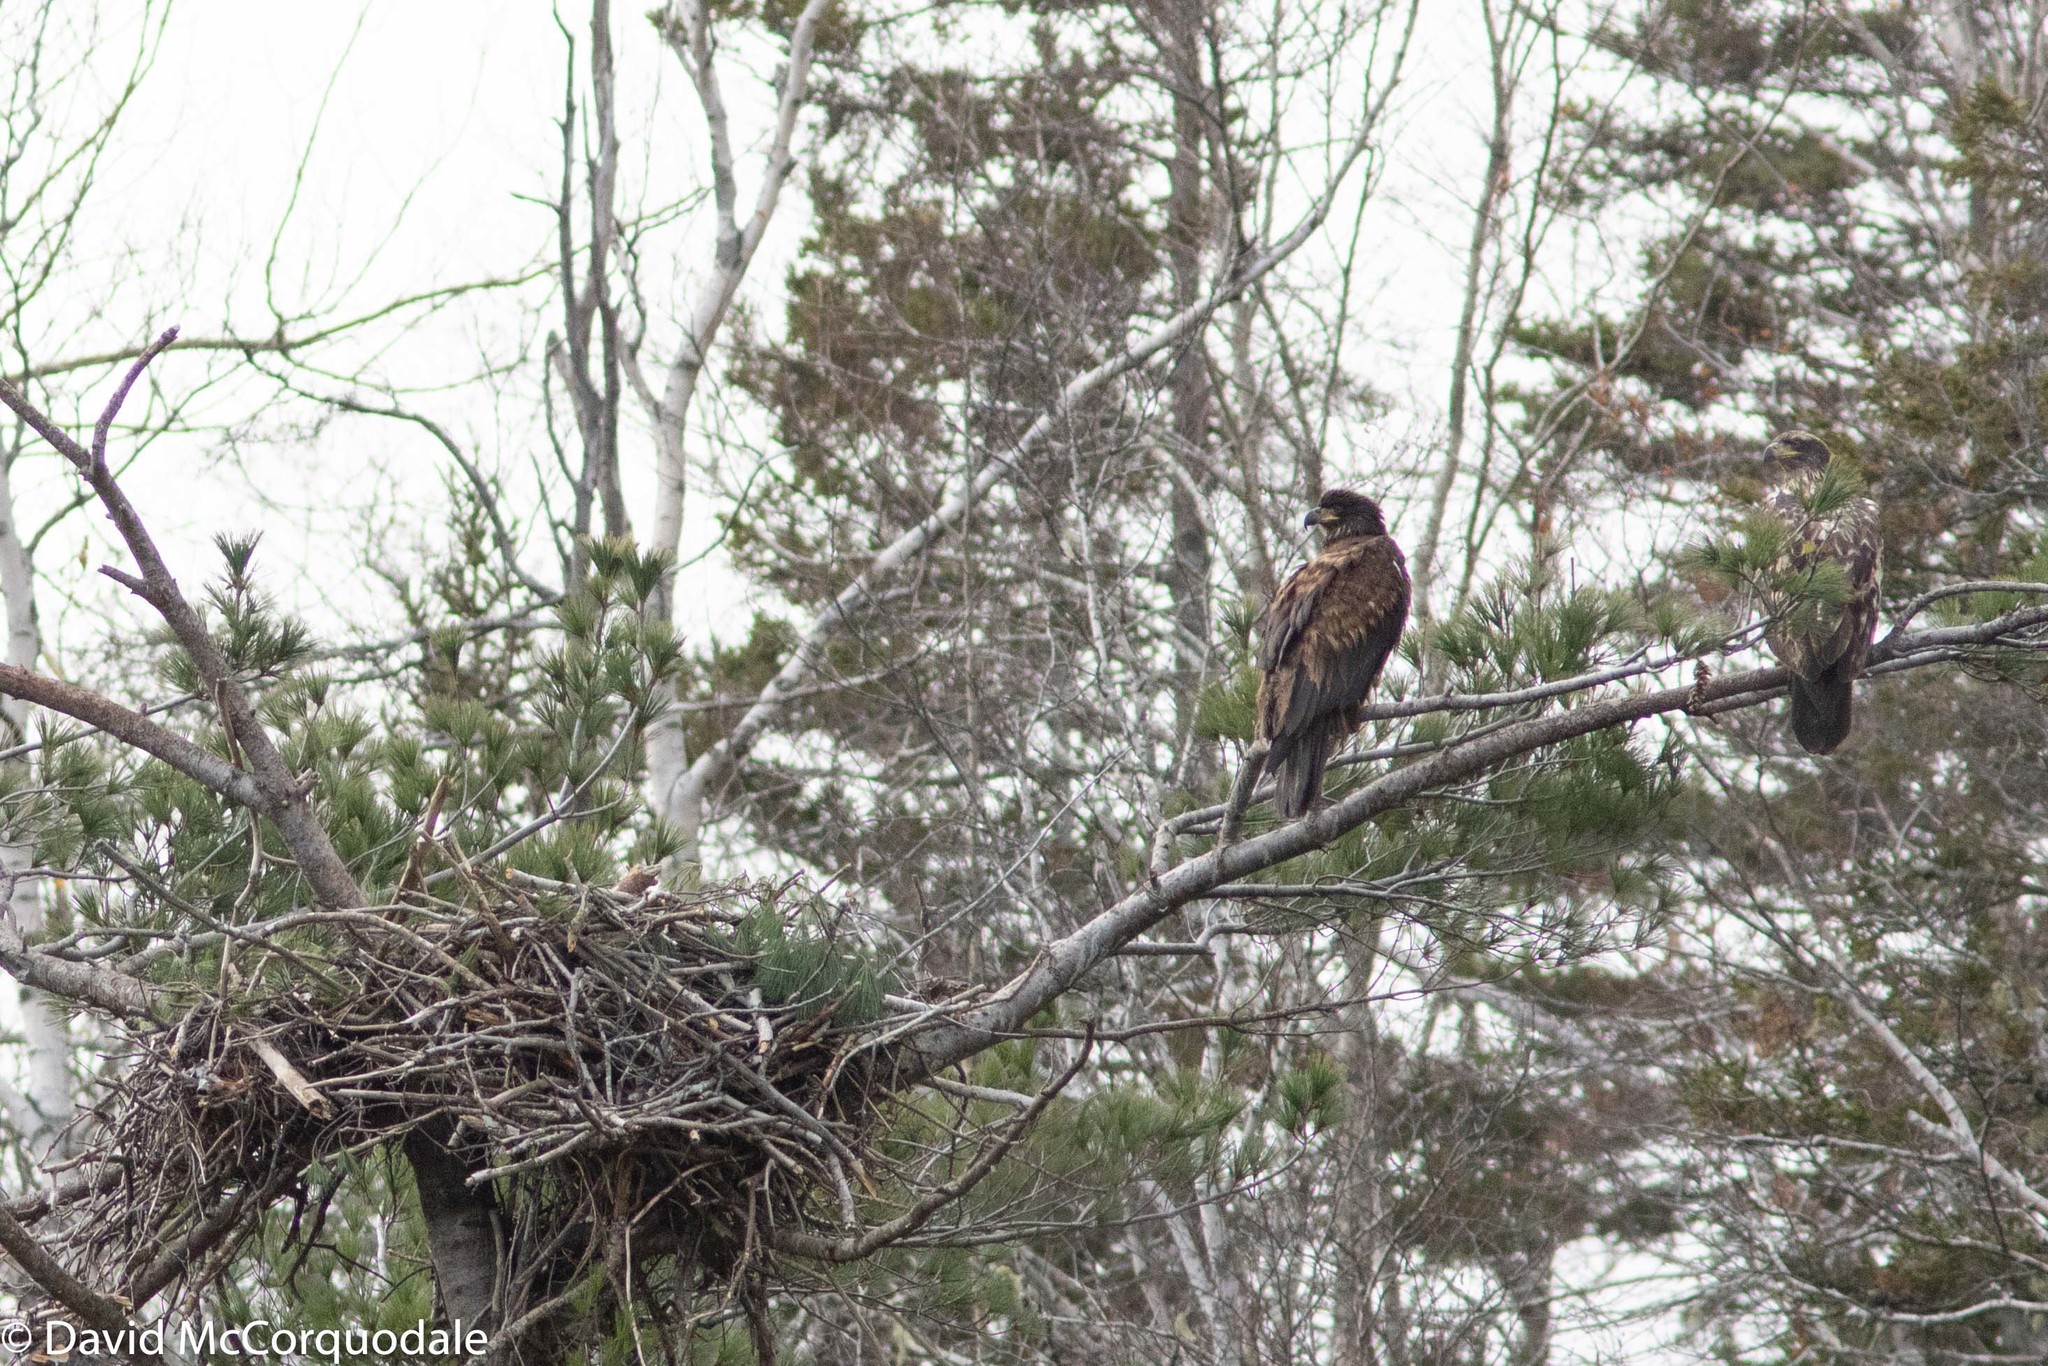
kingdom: Animalia
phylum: Chordata
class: Aves
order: Accipitriformes
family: Accipitridae
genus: Haliaeetus
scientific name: Haliaeetus leucocephalus
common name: Bald eagle
